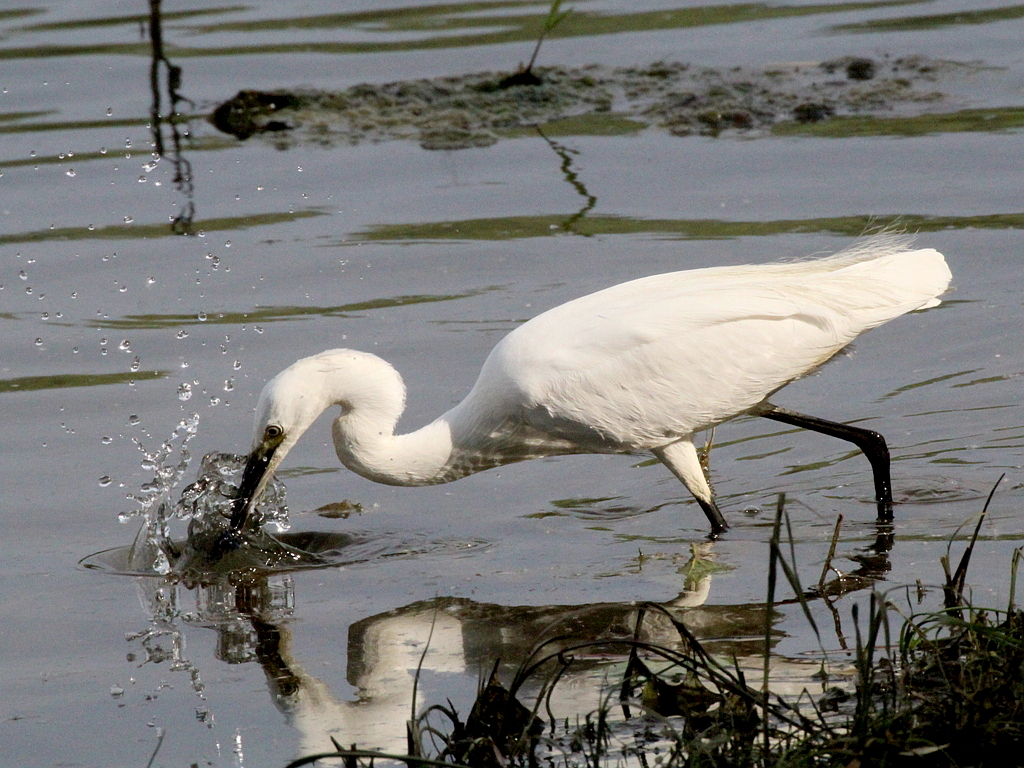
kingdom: Animalia
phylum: Chordata
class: Aves
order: Pelecaniformes
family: Ardeidae
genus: Egretta
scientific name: Egretta garzetta
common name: Little egret
